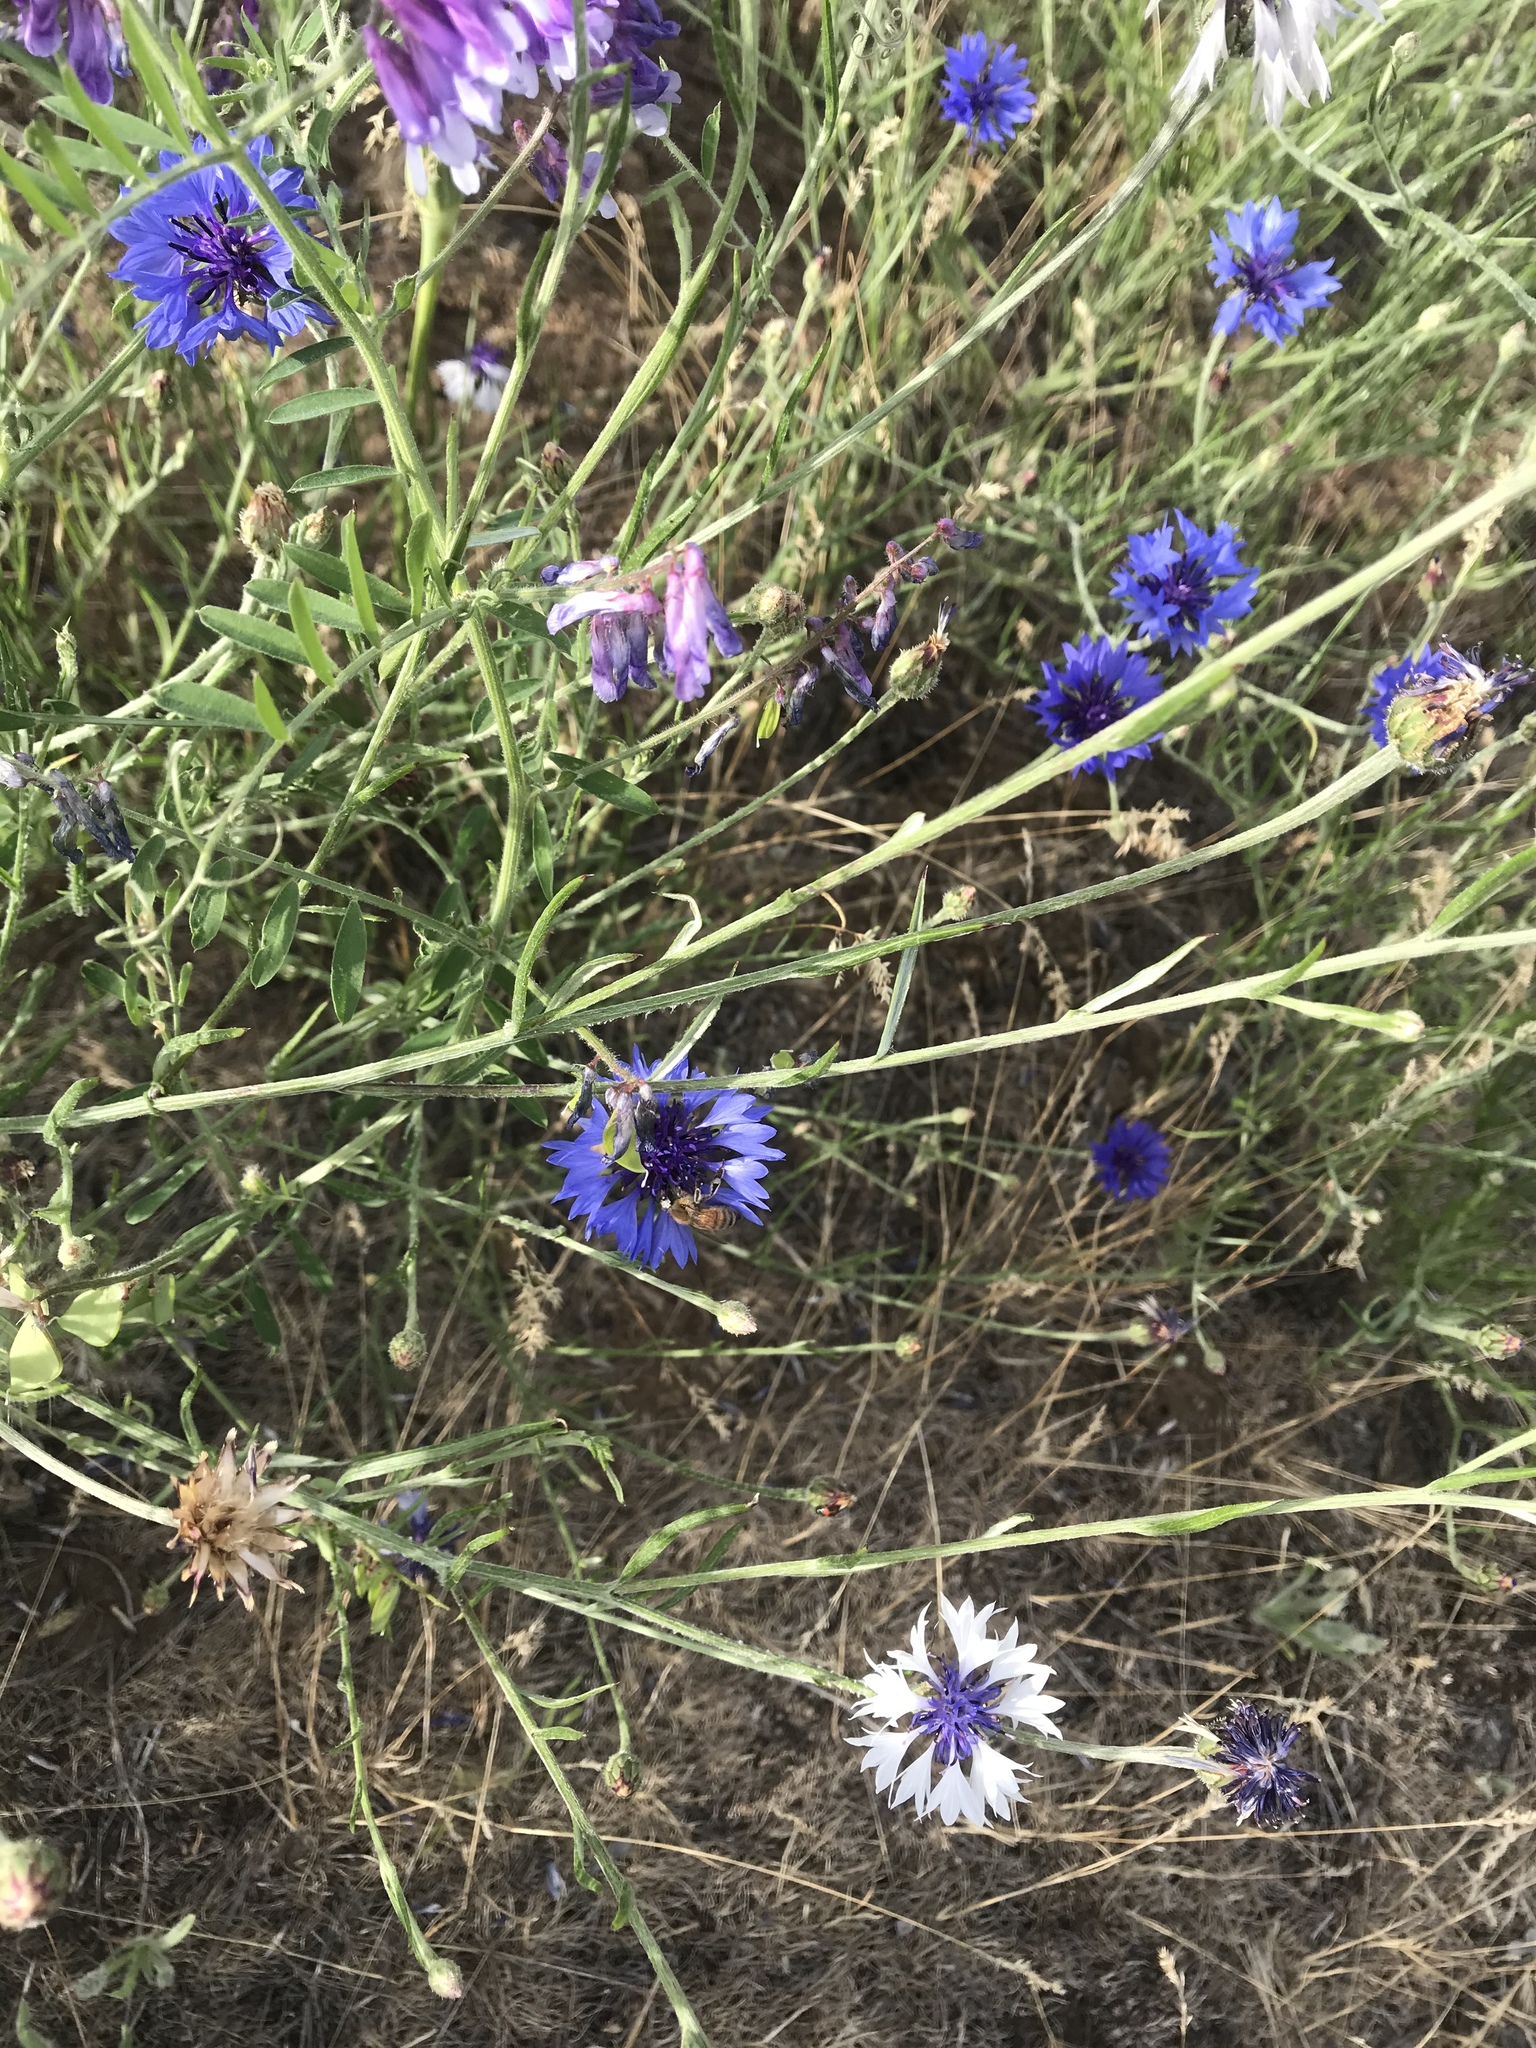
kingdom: Plantae
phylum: Tracheophyta
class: Magnoliopsida
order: Asterales
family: Asteraceae
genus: Centaurea
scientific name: Centaurea cyanus
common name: Cornflower
